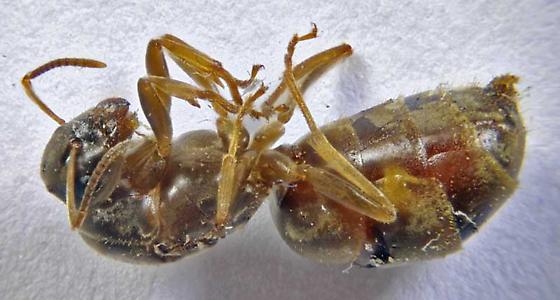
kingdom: Animalia
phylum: Arthropoda
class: Insecta
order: Hymenoptera
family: Formicidae
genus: Lasius
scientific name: Lasius americanus
